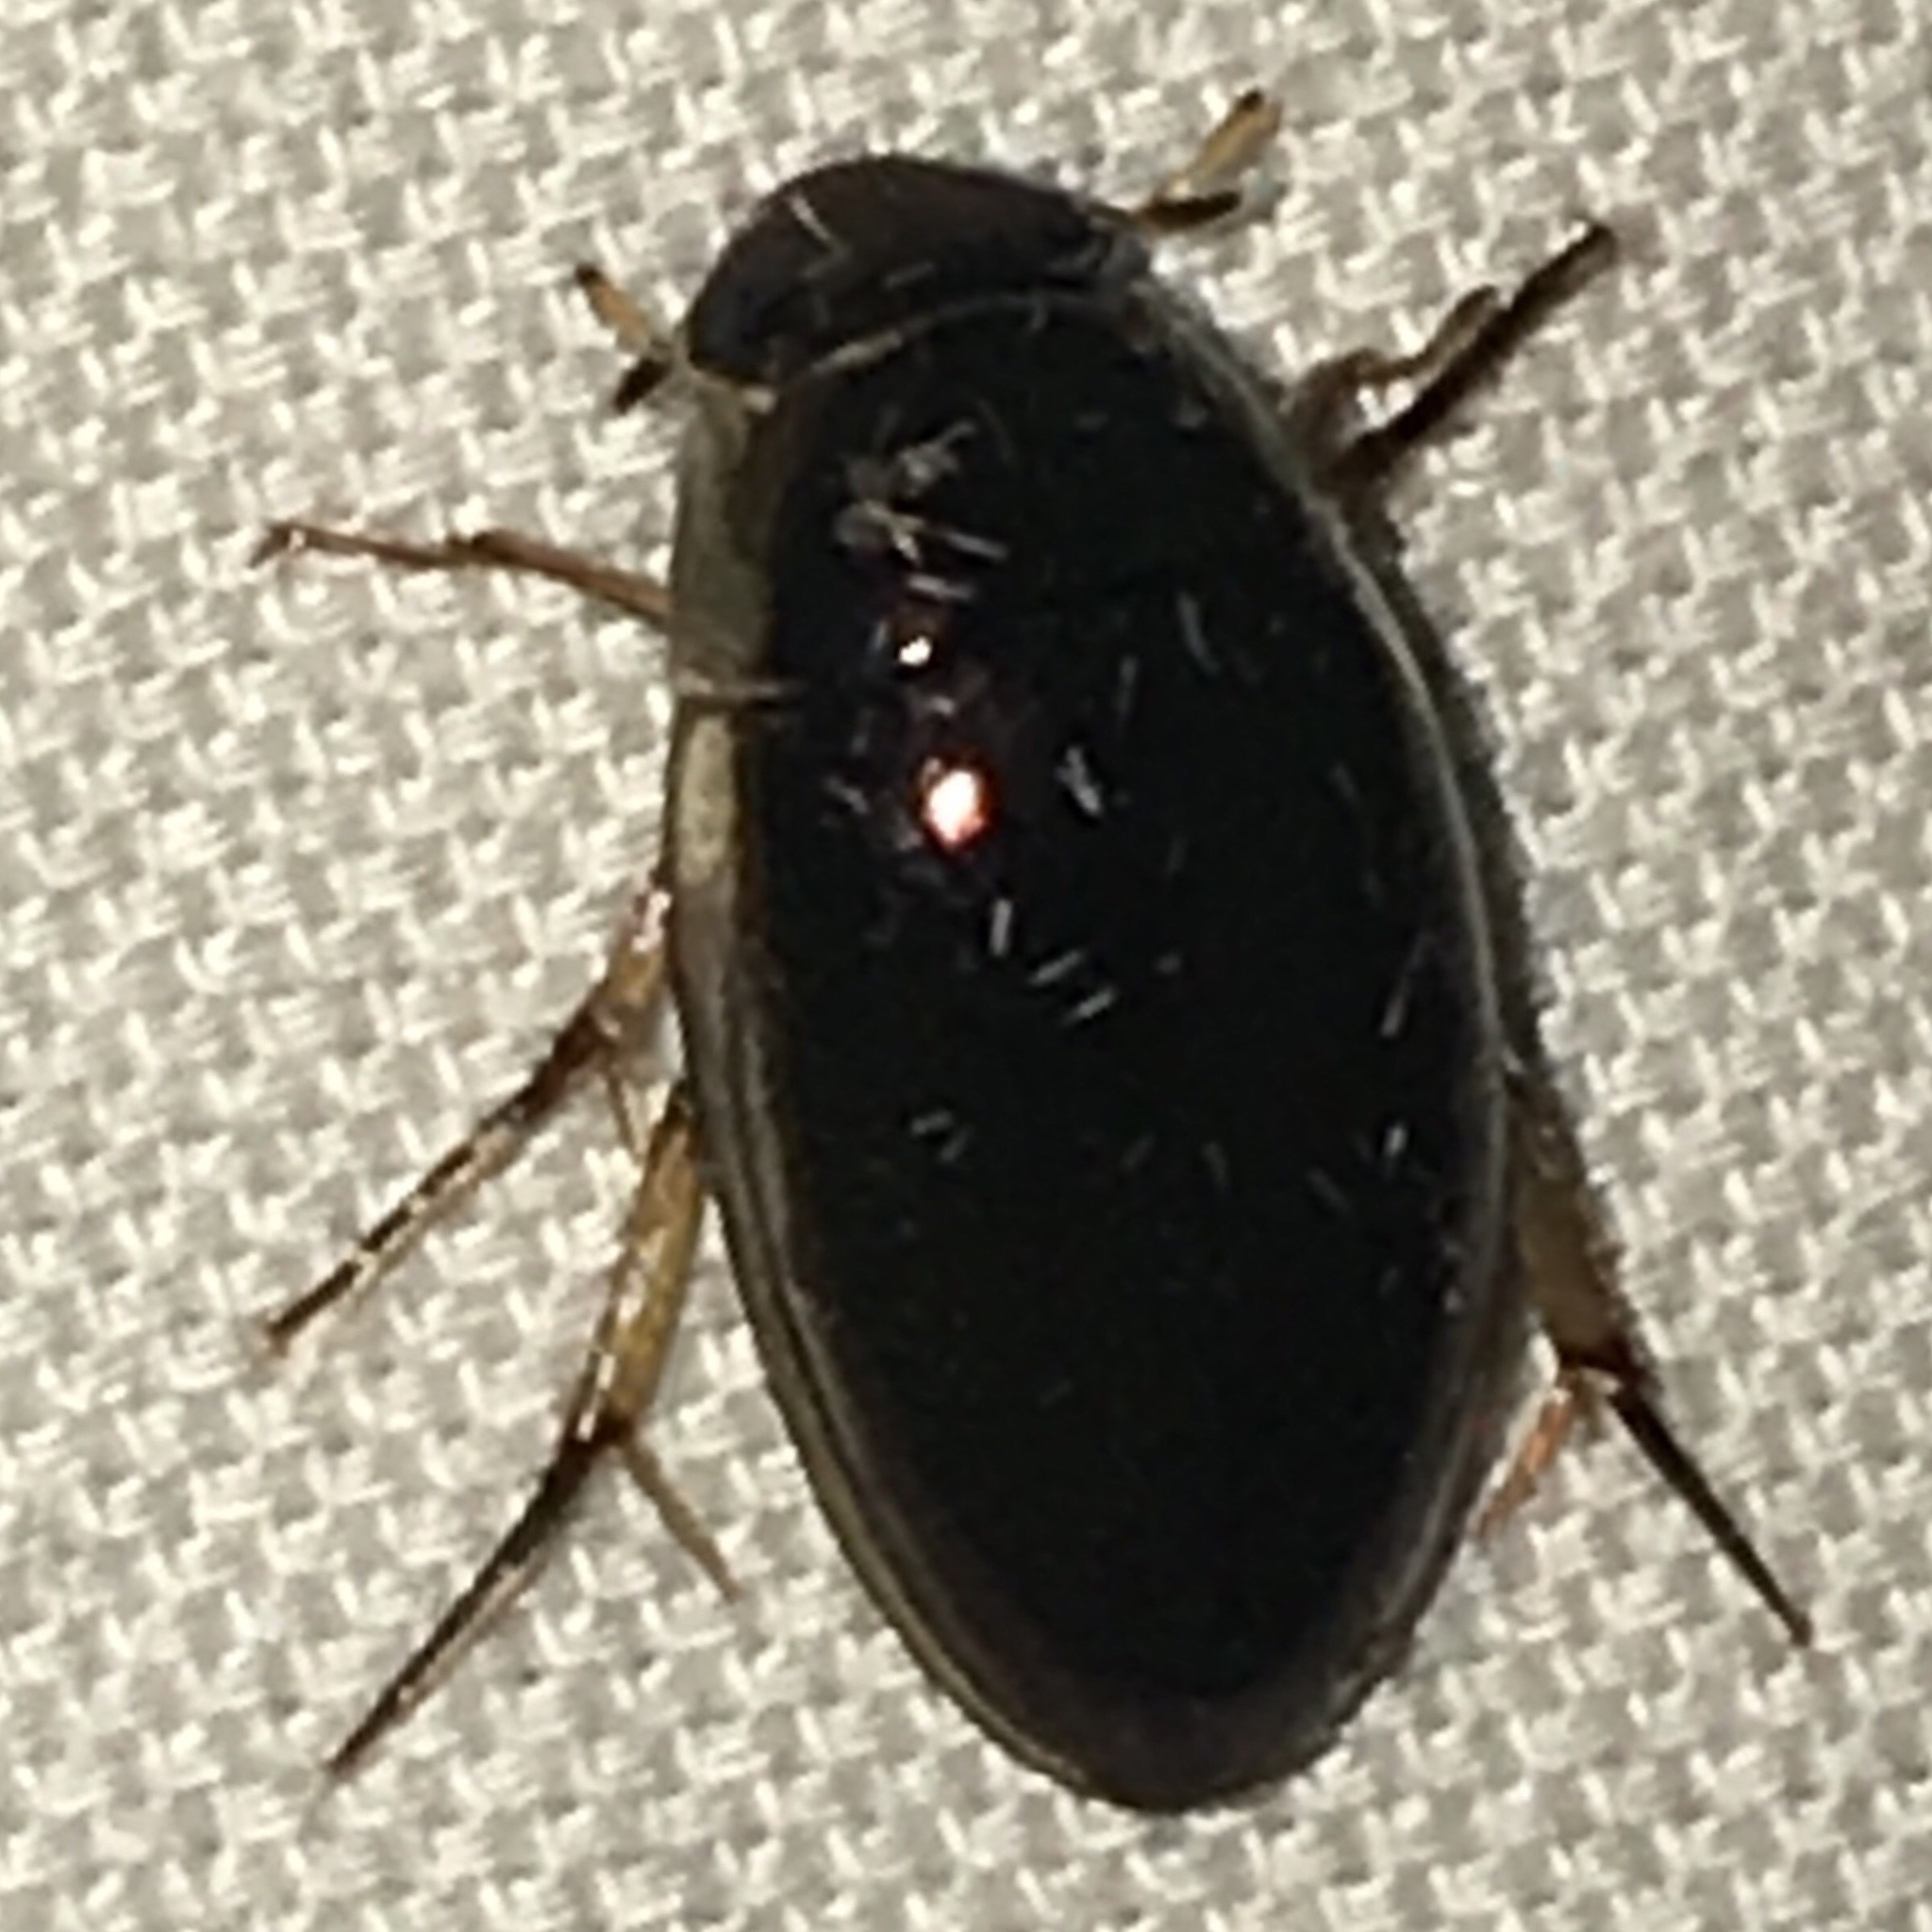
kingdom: Animalia
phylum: Arthropoda
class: Insecta
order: Coleoptera
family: Hydrophilidae
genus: Tropisternus
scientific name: Tropisternus lateralis
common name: Lateral-banded water scavenger beetle
